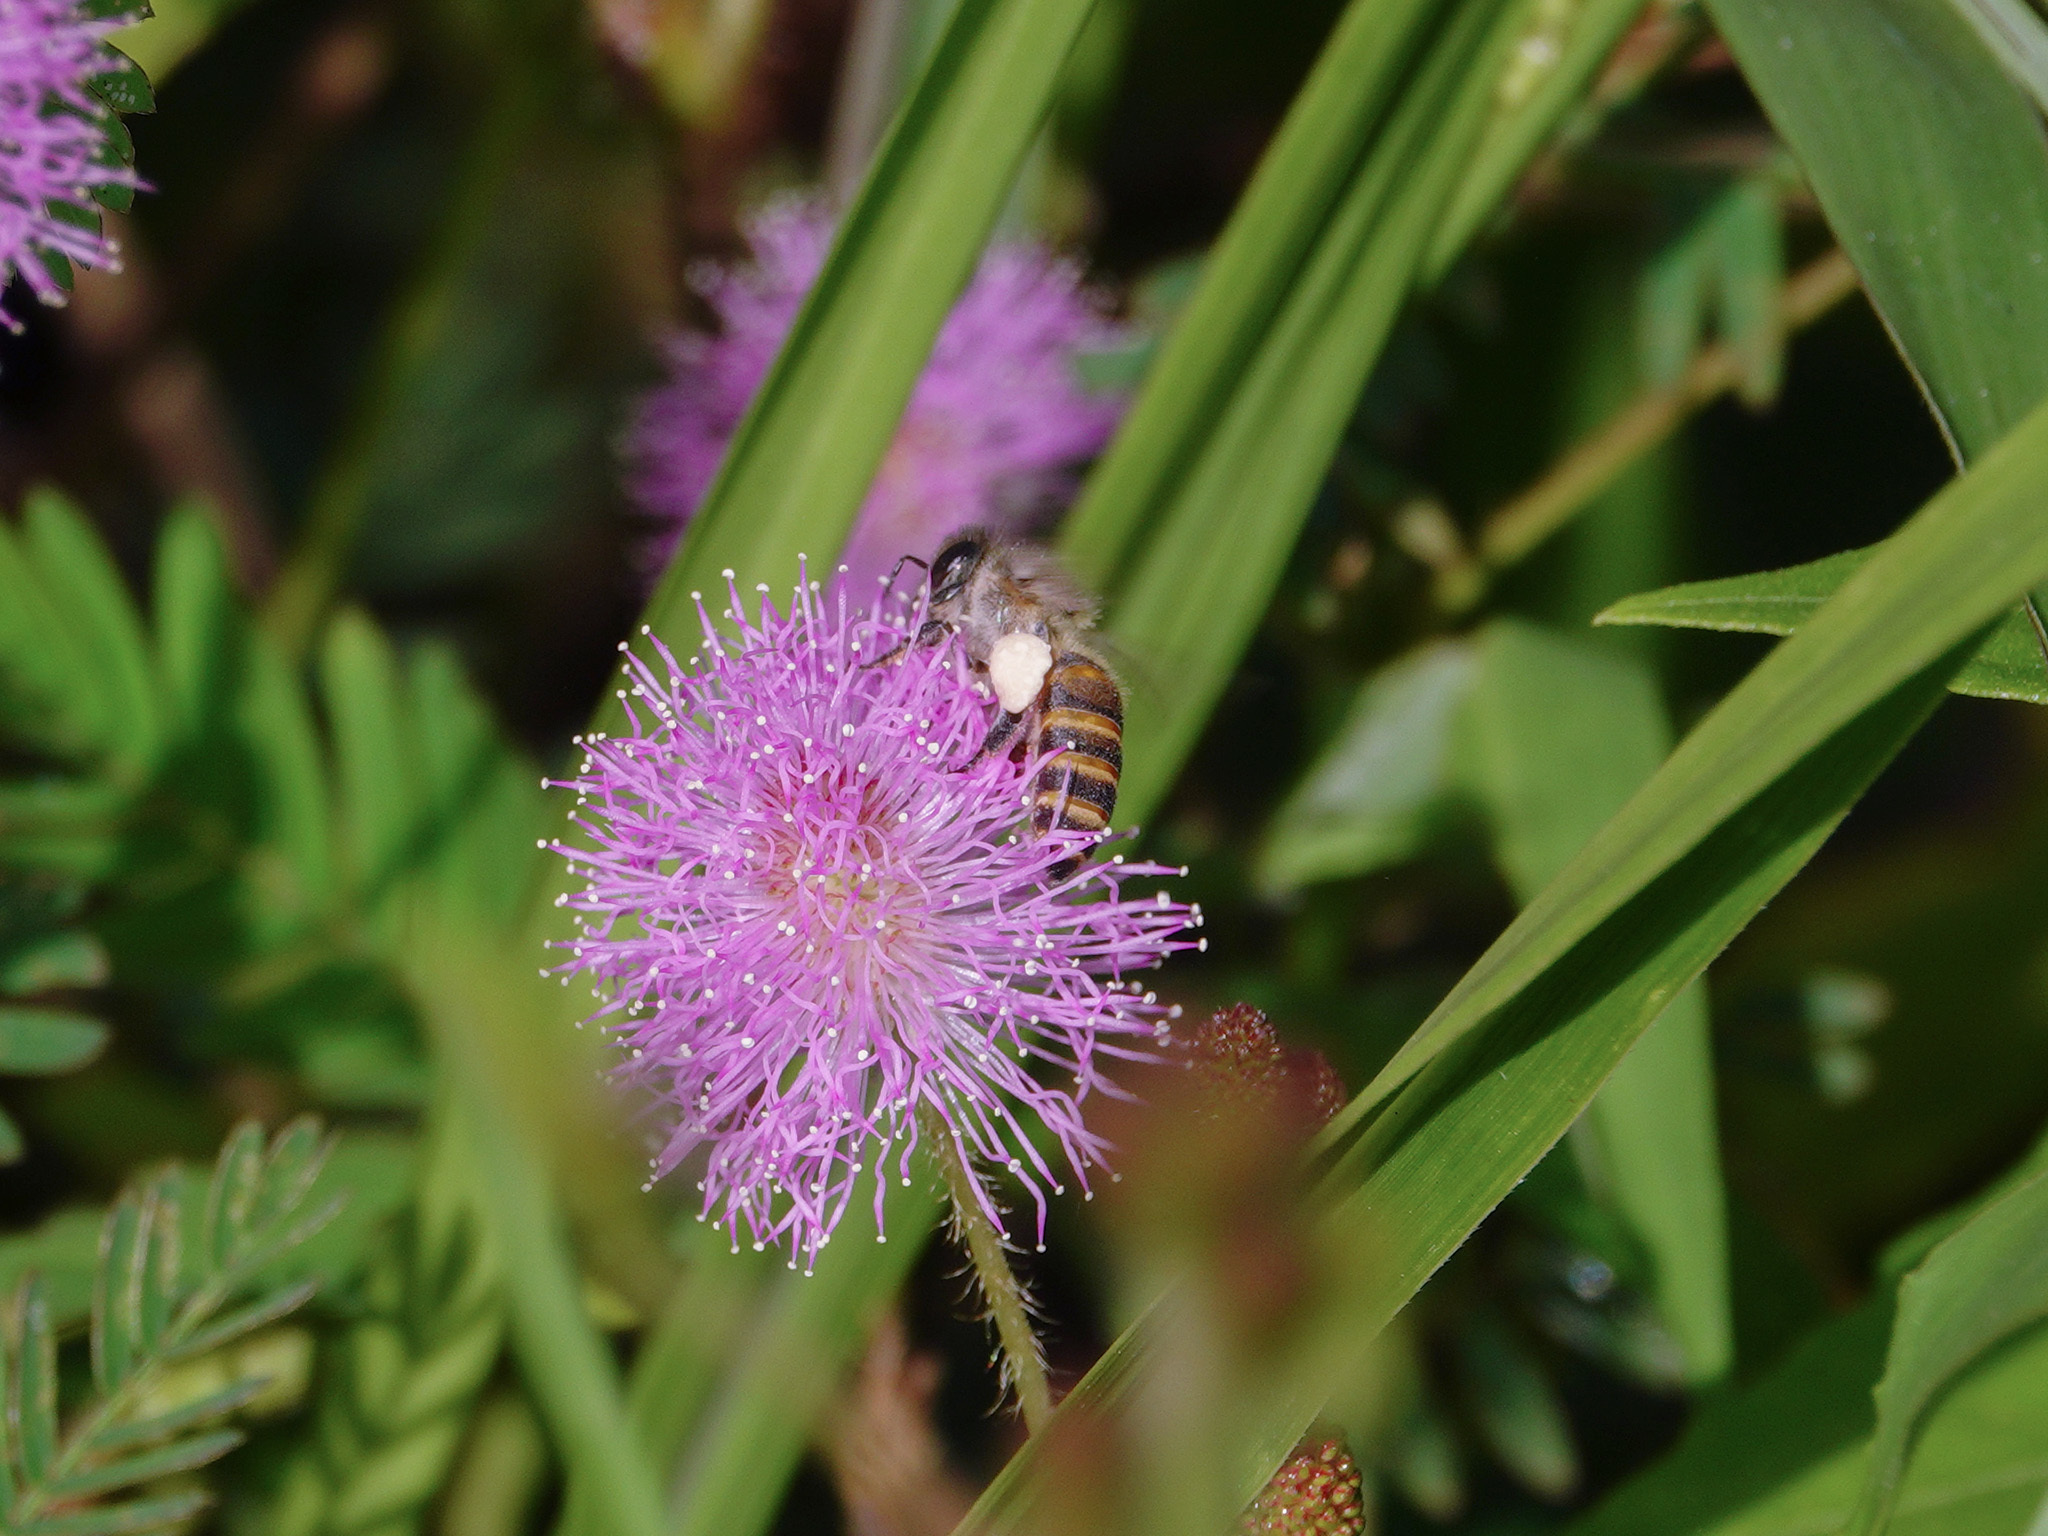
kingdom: Animalia
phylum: Arthropoda
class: Insecta
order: Hymenoptera
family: Apidae
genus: Apis
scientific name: Apis cerana
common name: Honey bee
